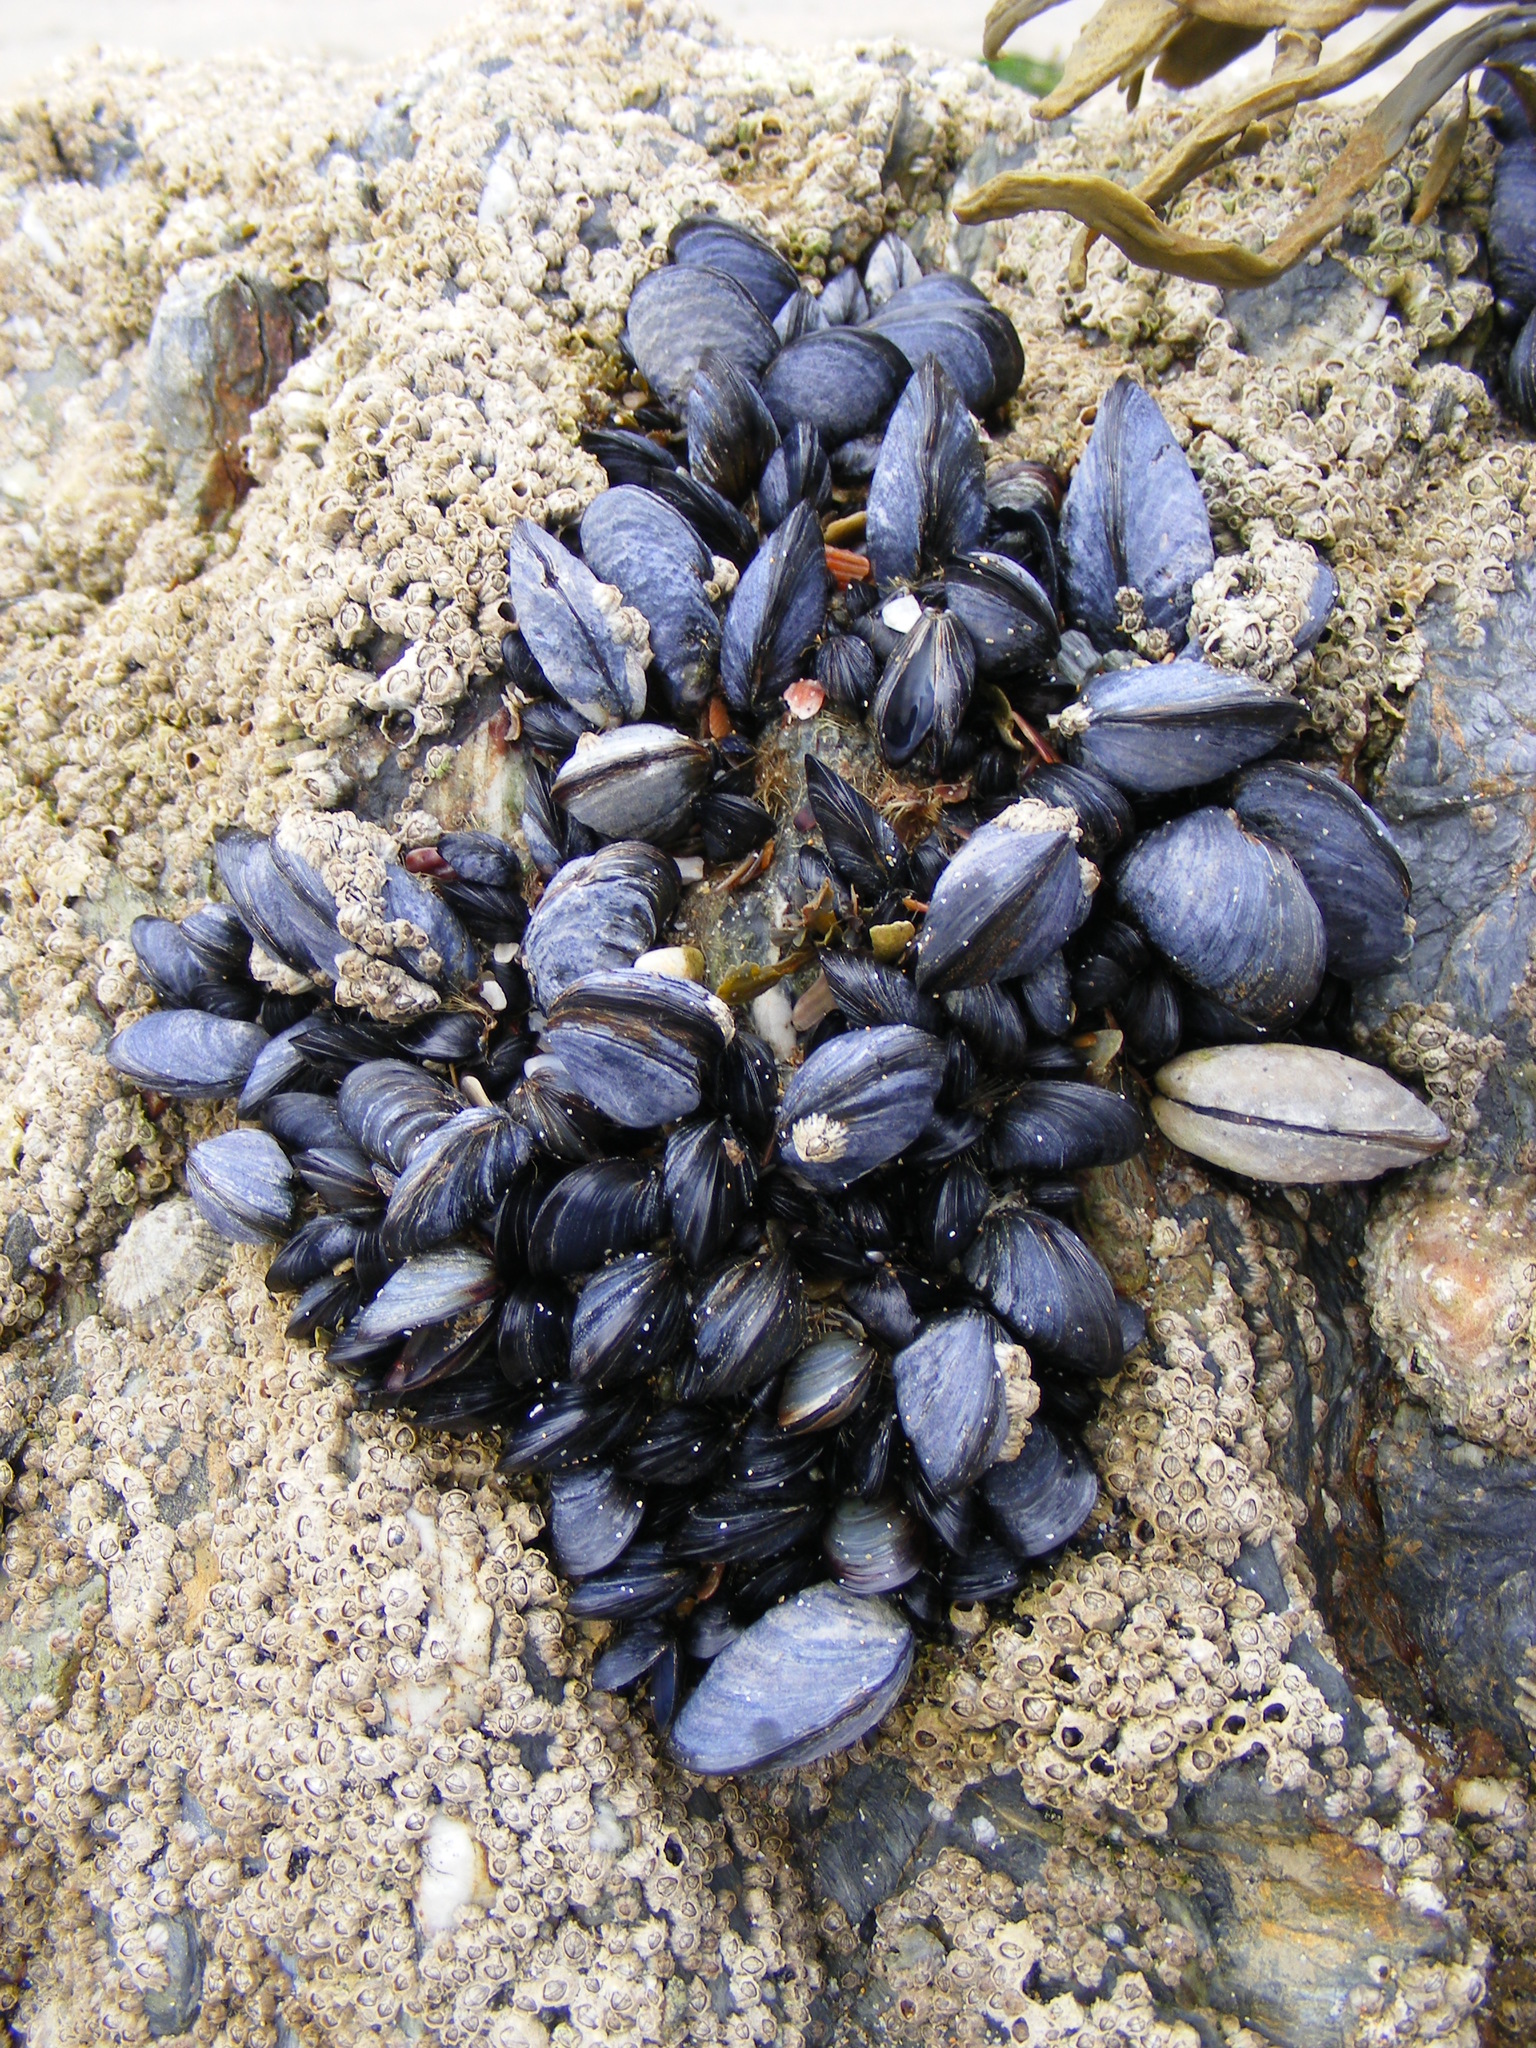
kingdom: Animalia
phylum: Mollusca
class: Bivalvia
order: Mytilida
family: Mytilidae
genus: Mytilus
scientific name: Mytilus edulis
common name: Blue mussel
